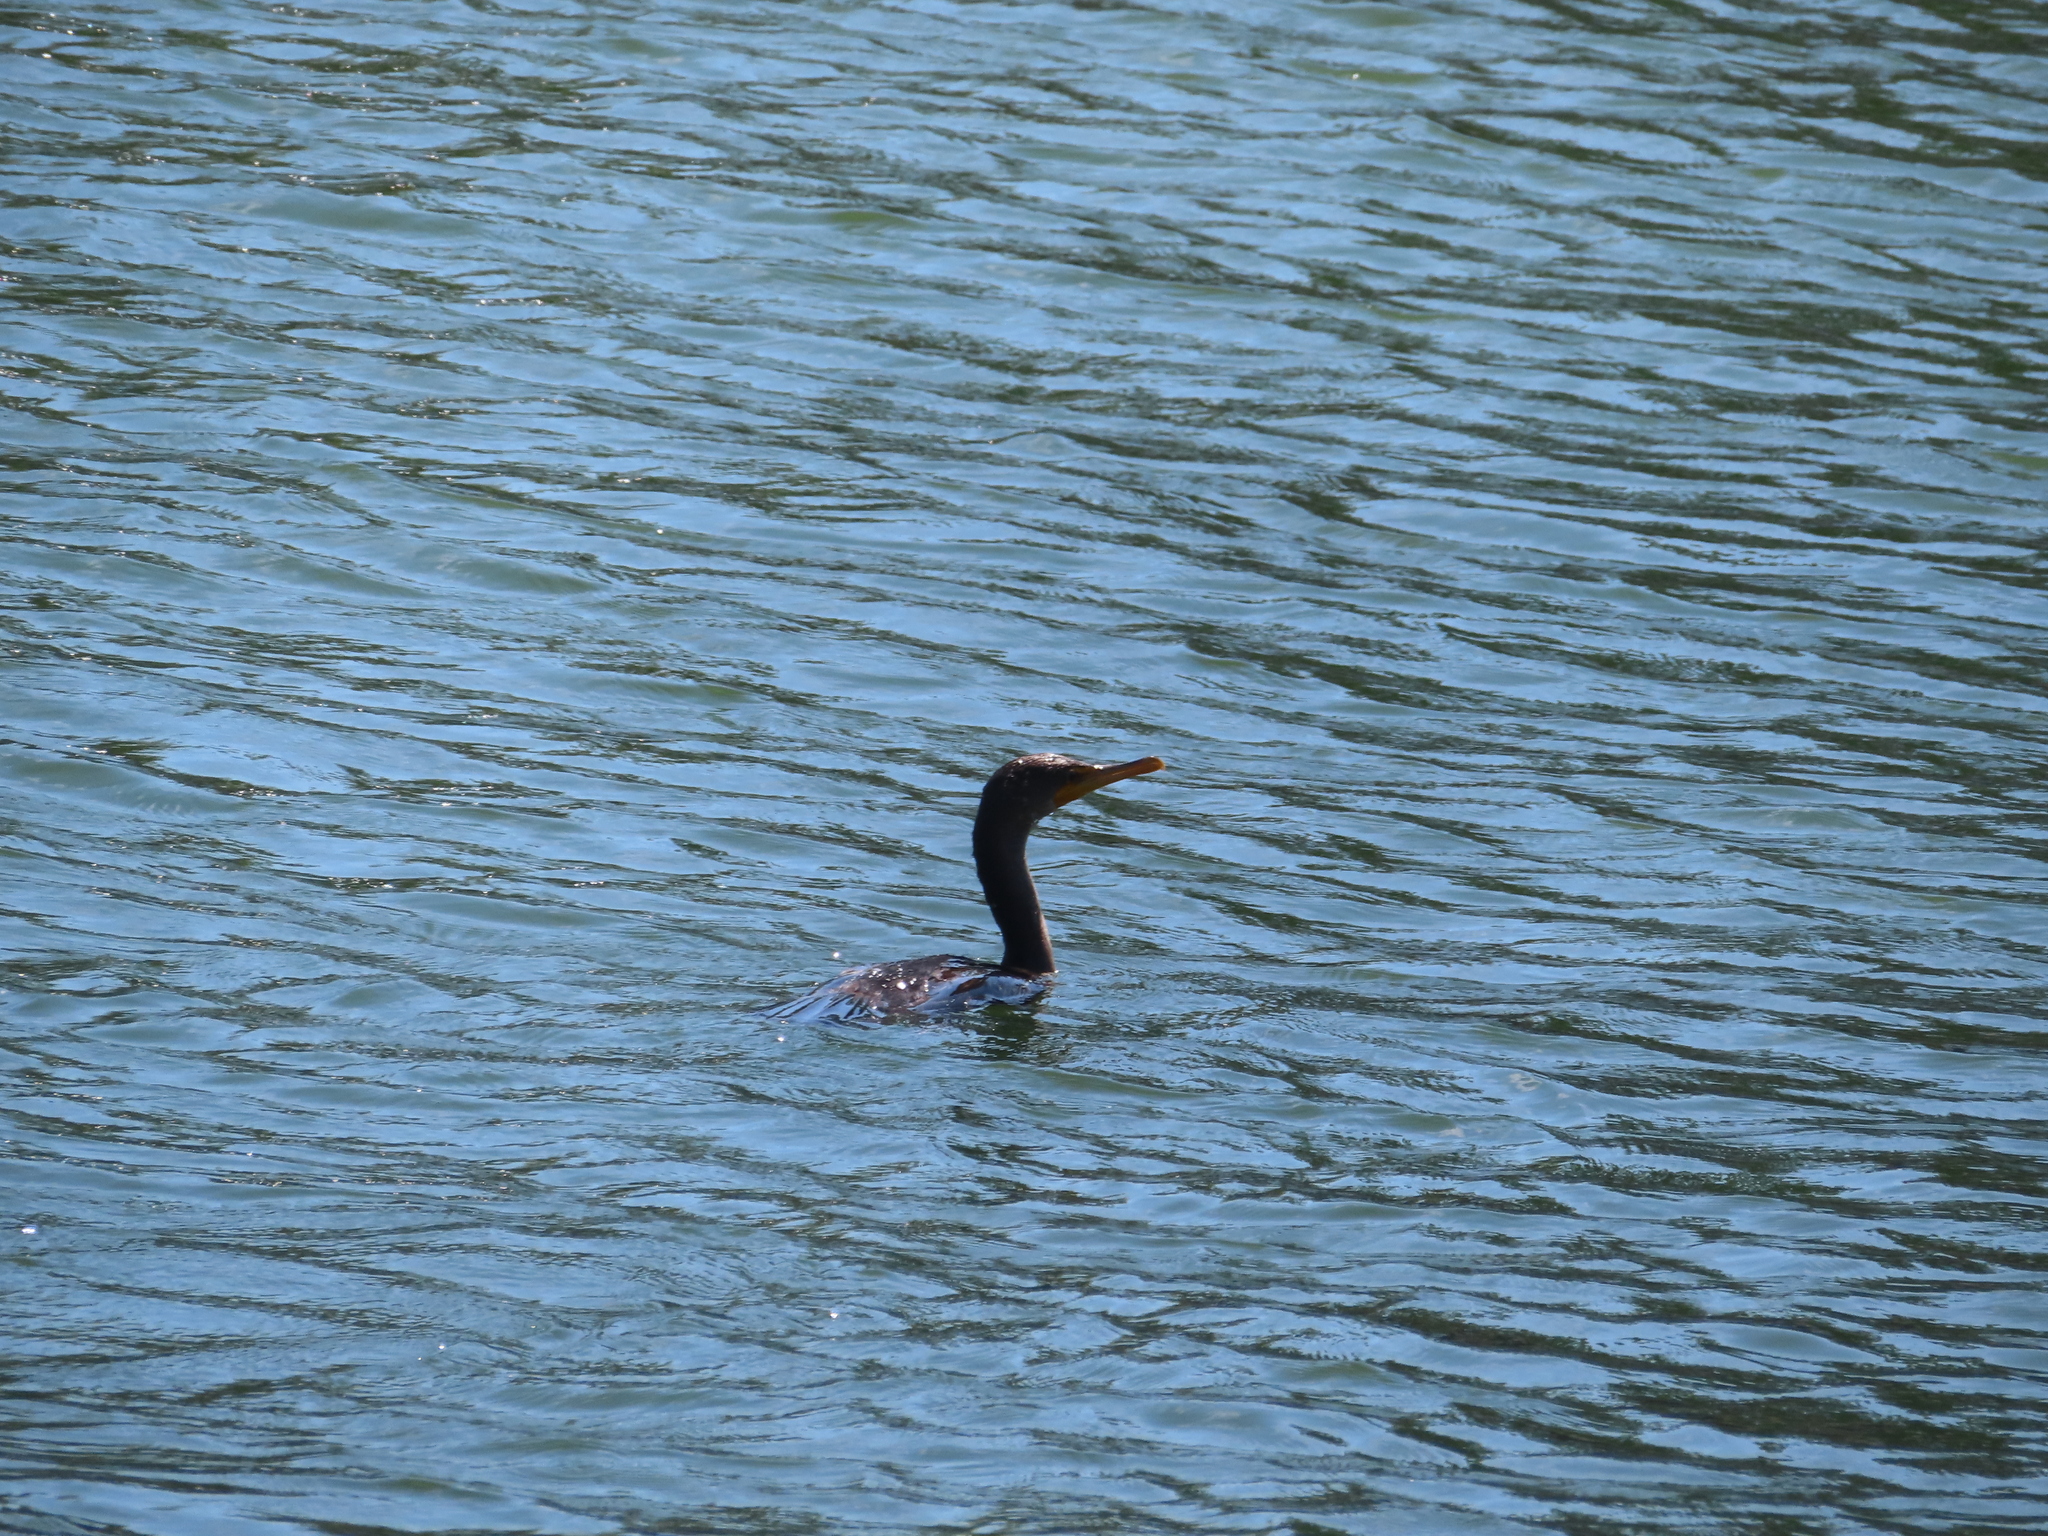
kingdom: Animalia
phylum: Chordata
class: Aves
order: Suliformes
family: Phalacrocoracidae
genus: Phalacrocorax
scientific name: Phalacrocorax auritus
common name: Double-crested cormorant
